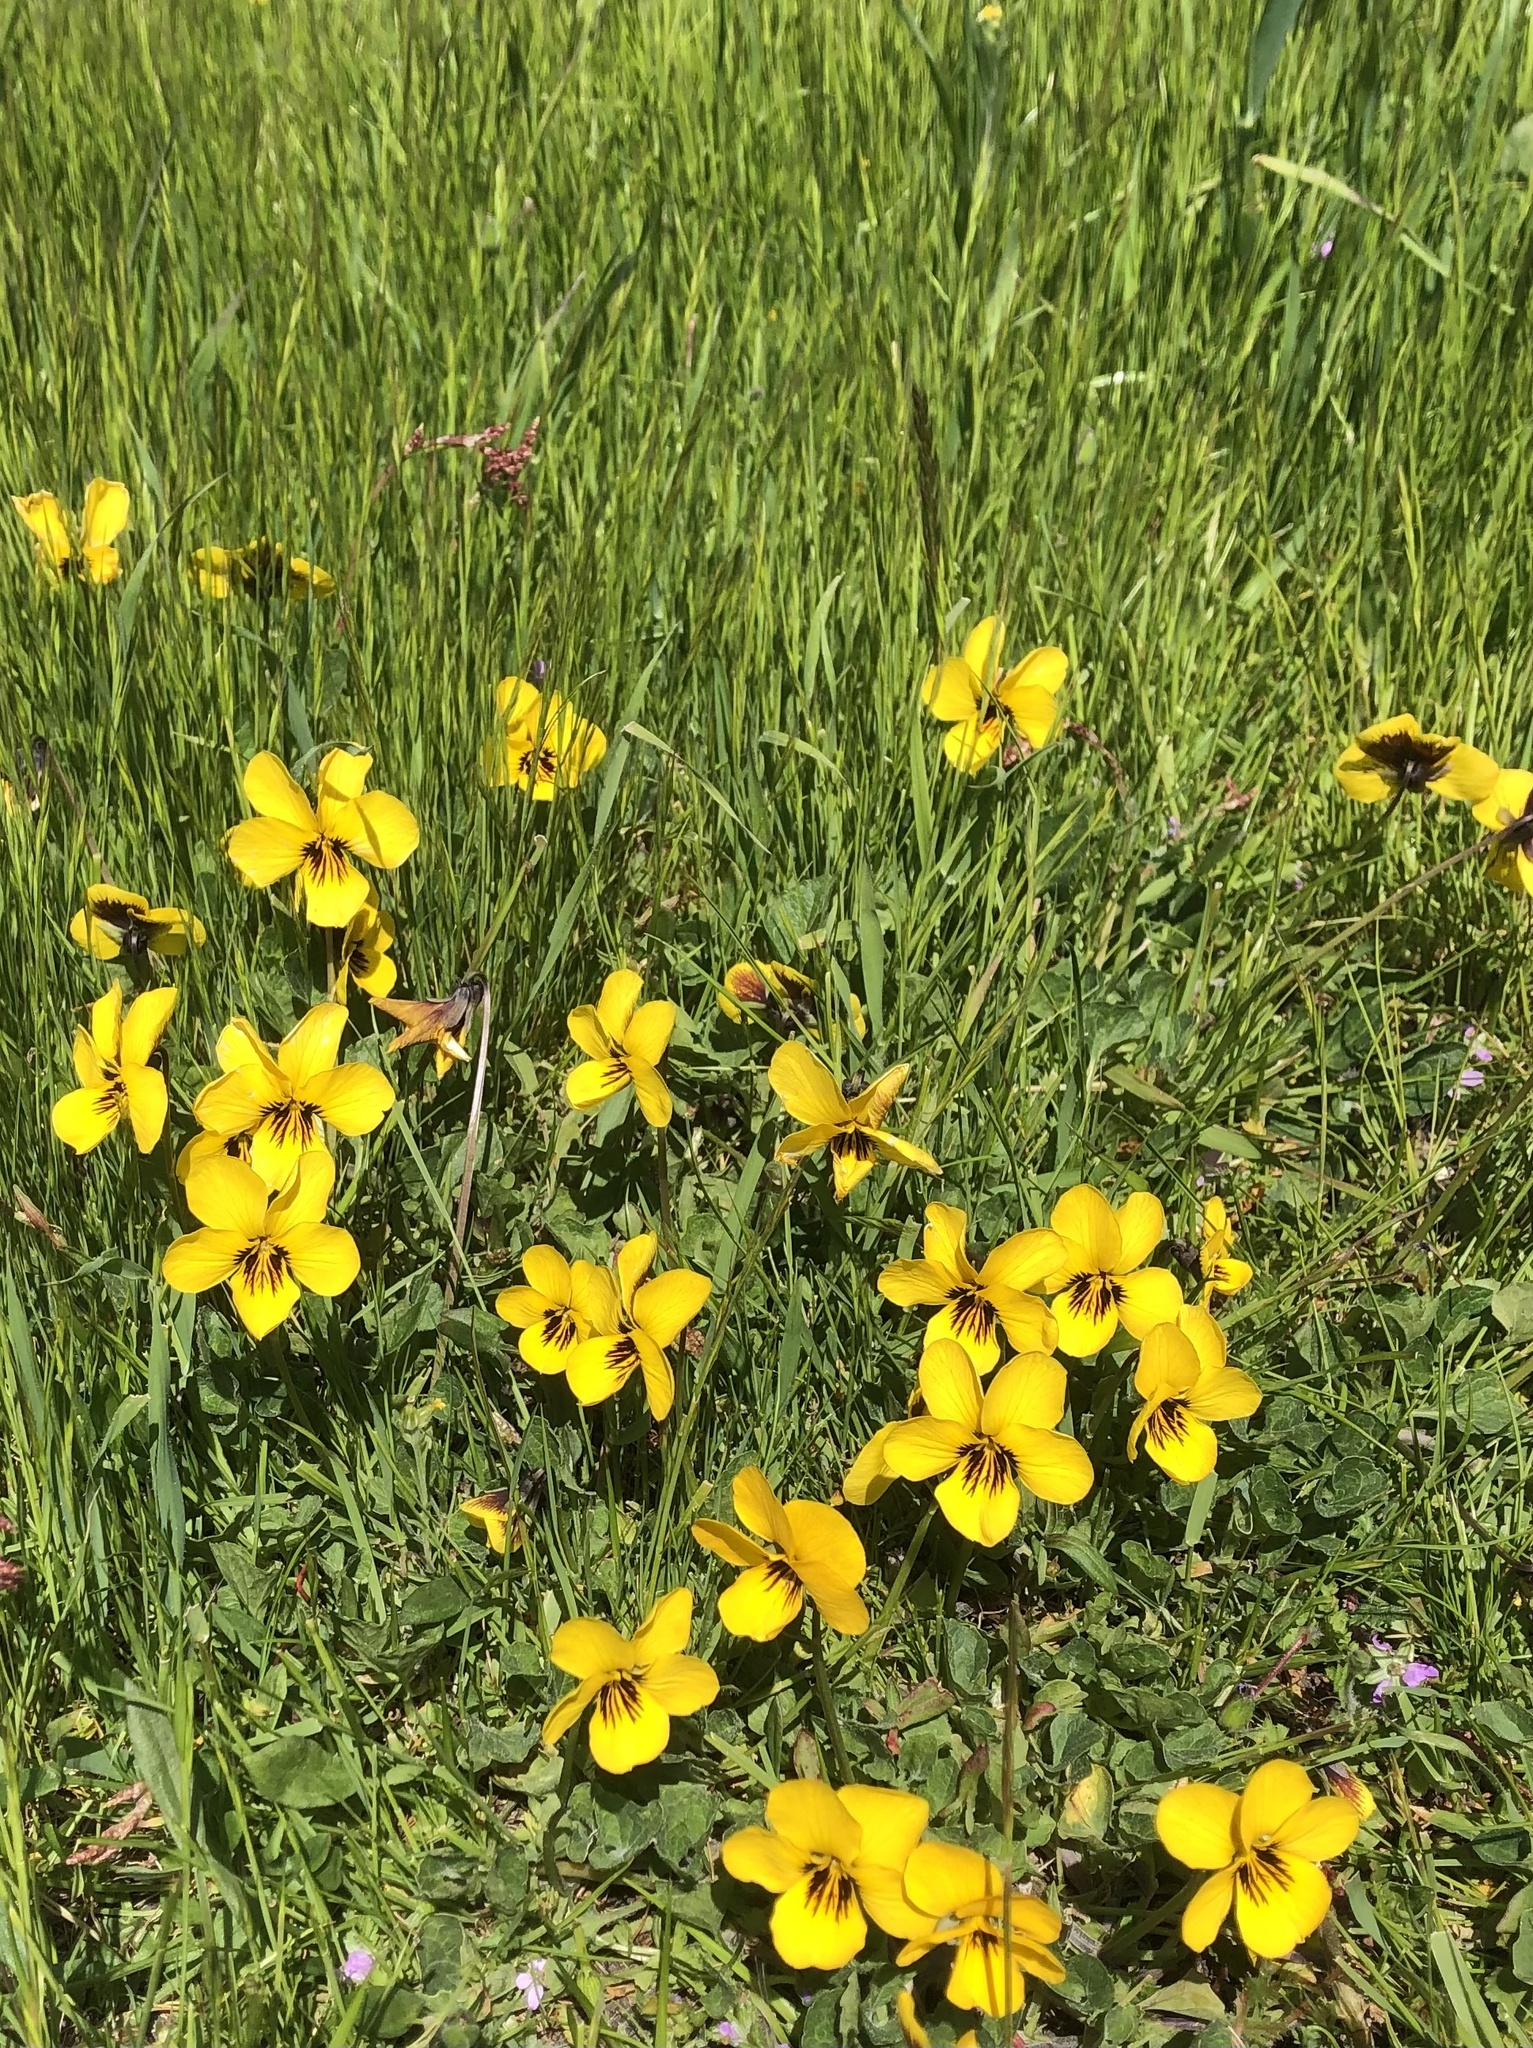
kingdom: Plantae
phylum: Tracheophyta
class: Magnoliopsida
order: Malpighiales
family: Violaceae
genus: Viola
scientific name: Viola pedunculata
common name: California golden violet
